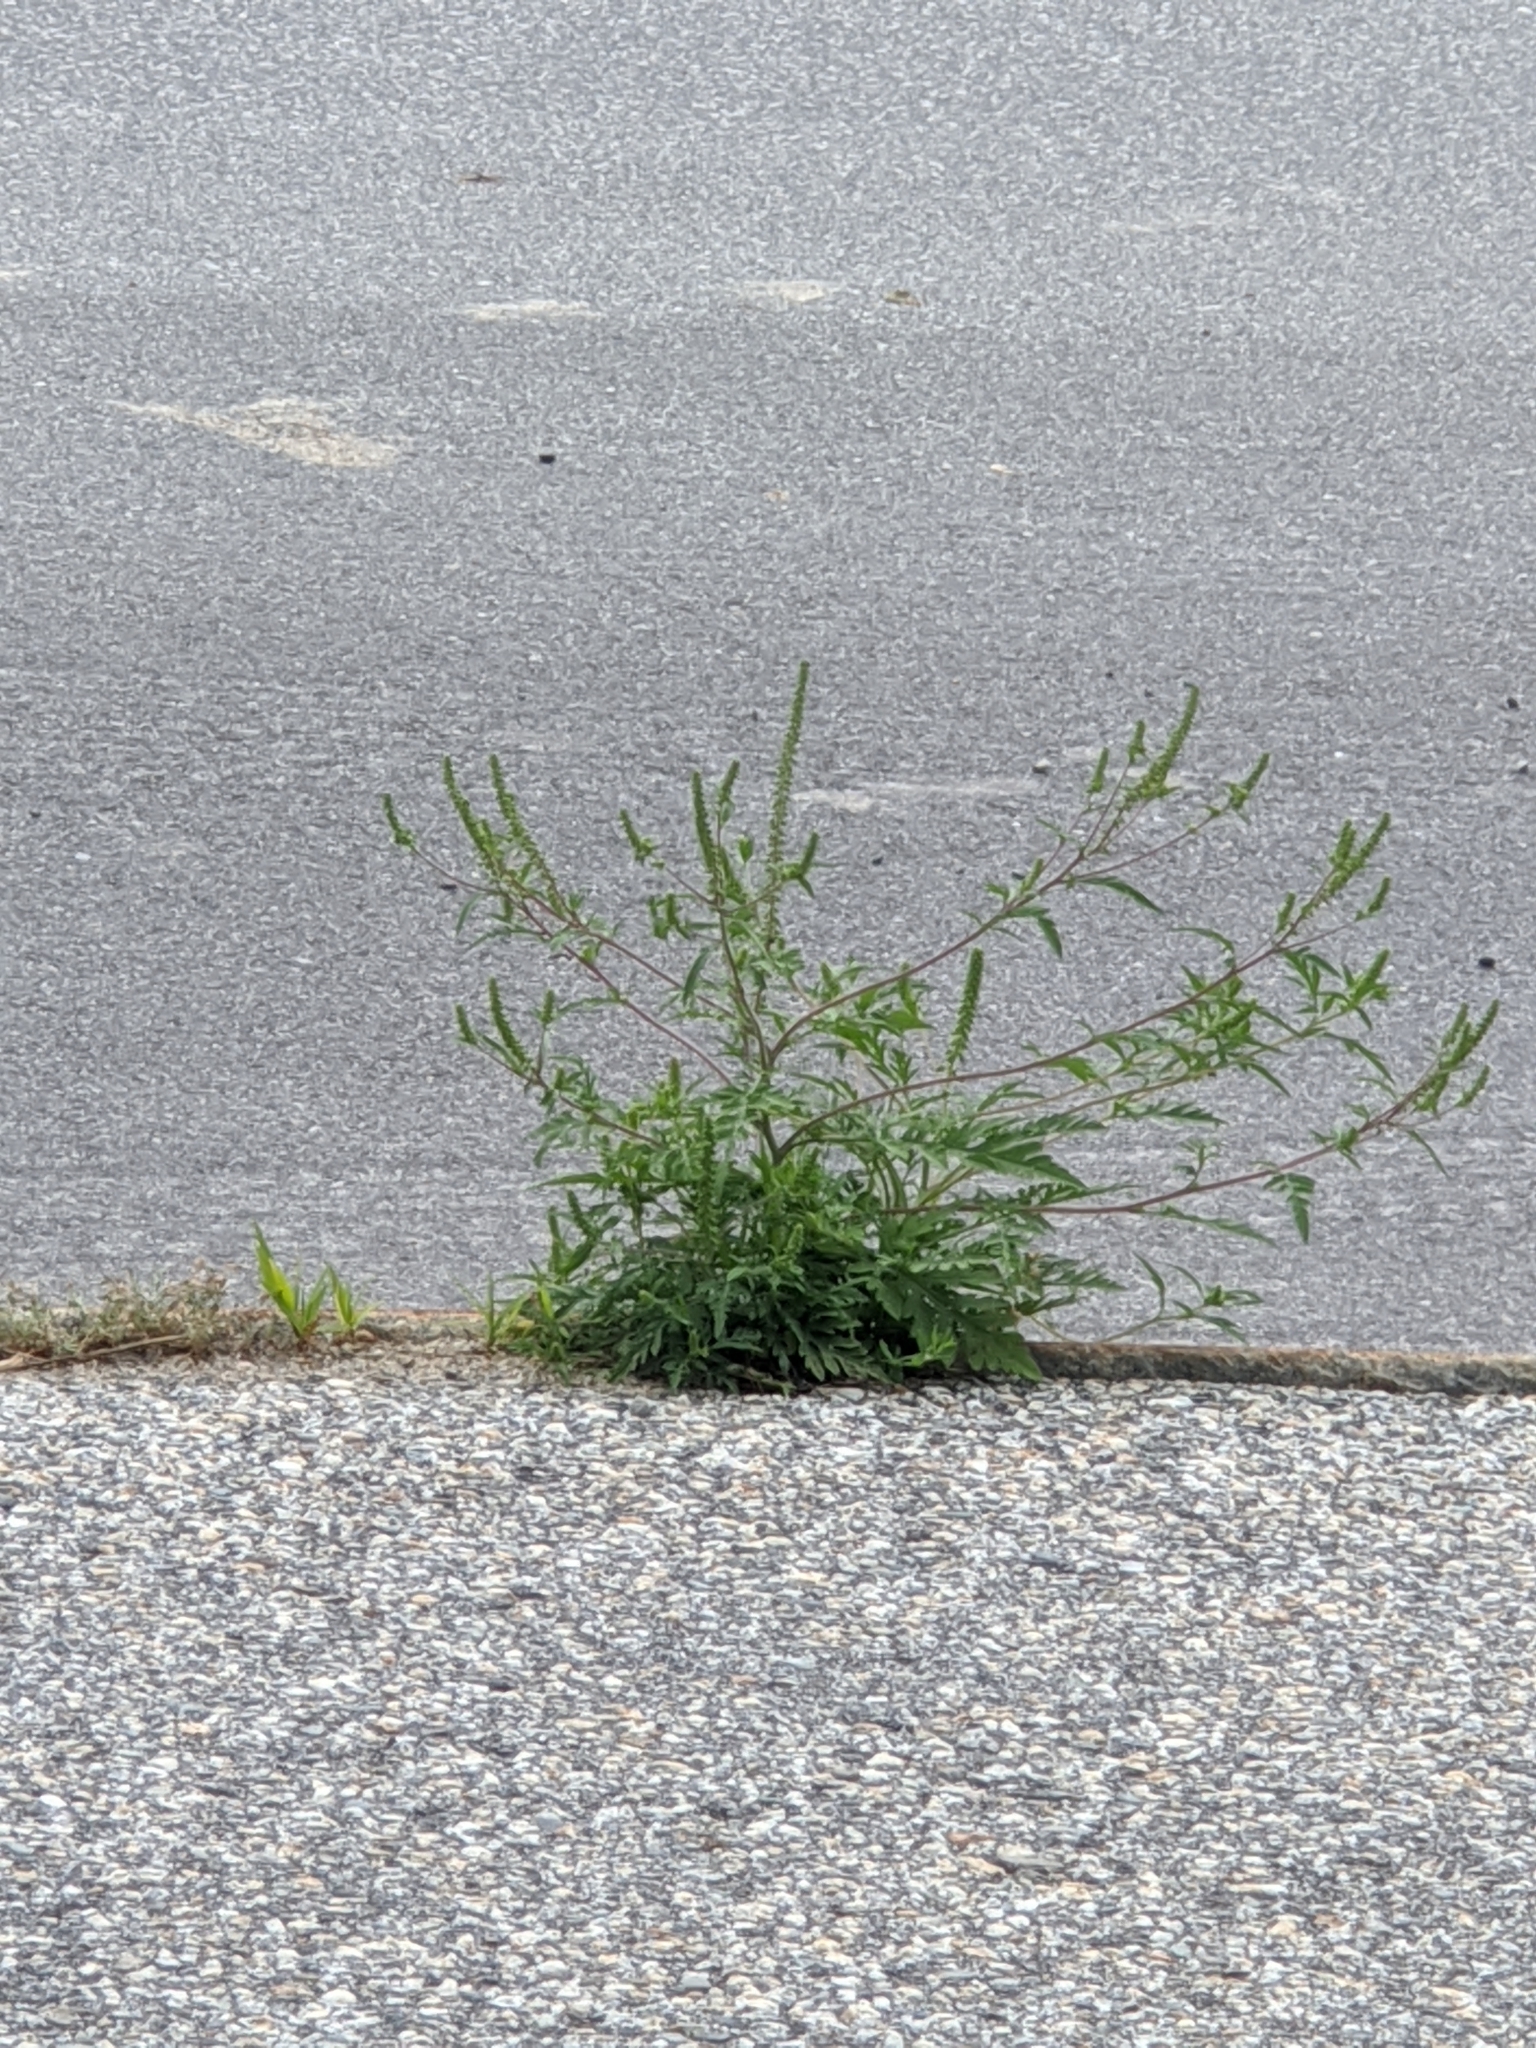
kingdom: Plantae
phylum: Tracheophyta
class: Magnoliopsida
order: Asterales
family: Asteraceae
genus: Ambrosia
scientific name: Ambrosia artemisiifolia
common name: Annual ragweed
